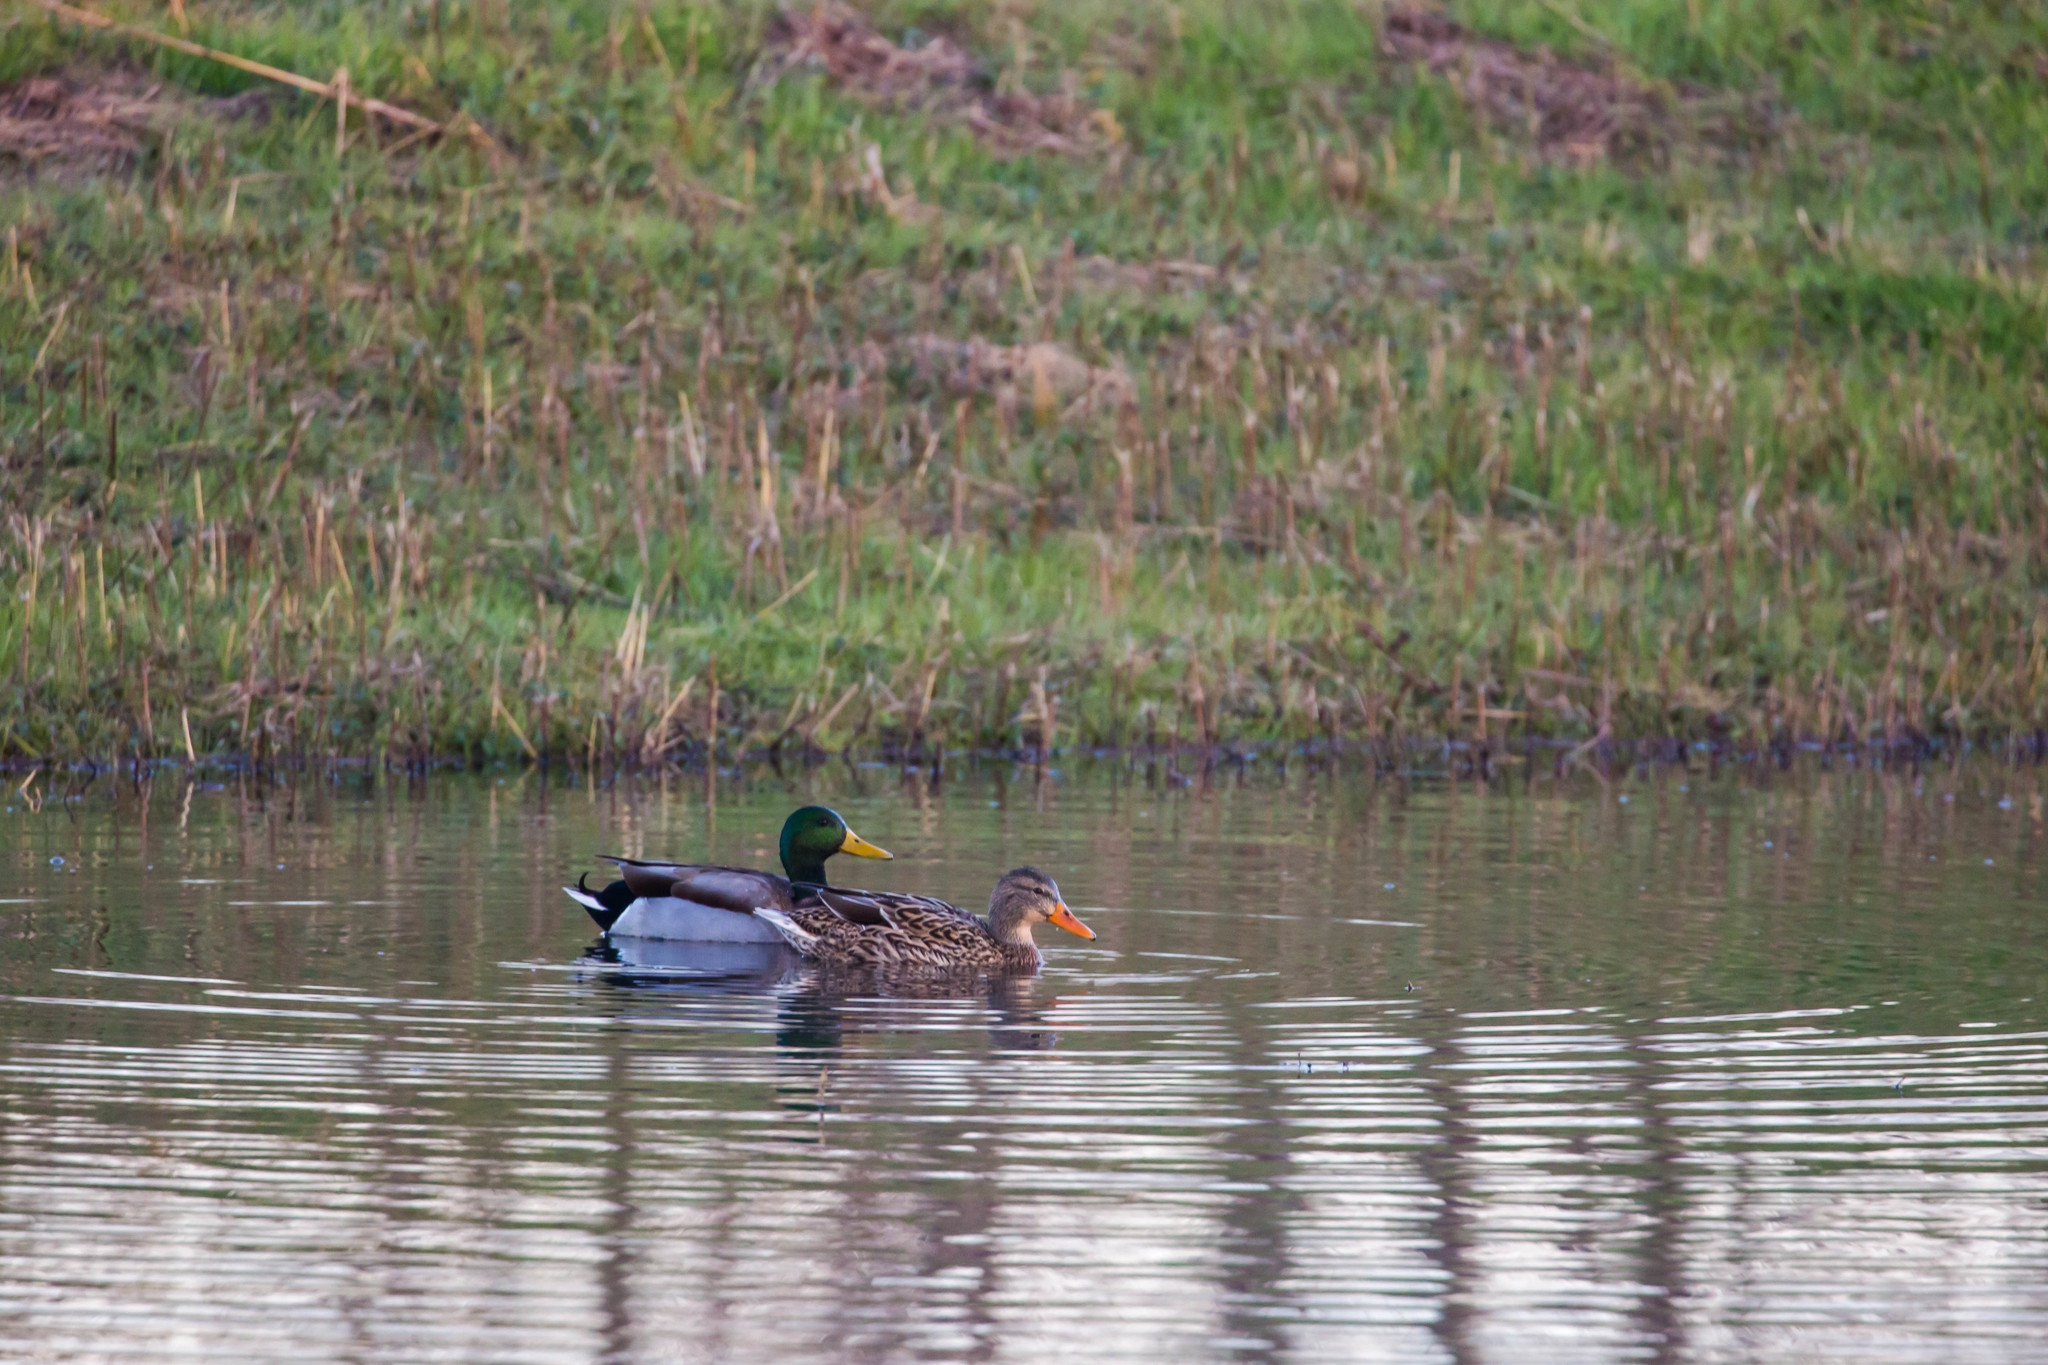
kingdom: Animalia
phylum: Chordata
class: Aves
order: Anseriformes
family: Anatidae
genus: Anas
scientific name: Anas platyrhynchos
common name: Mallard
